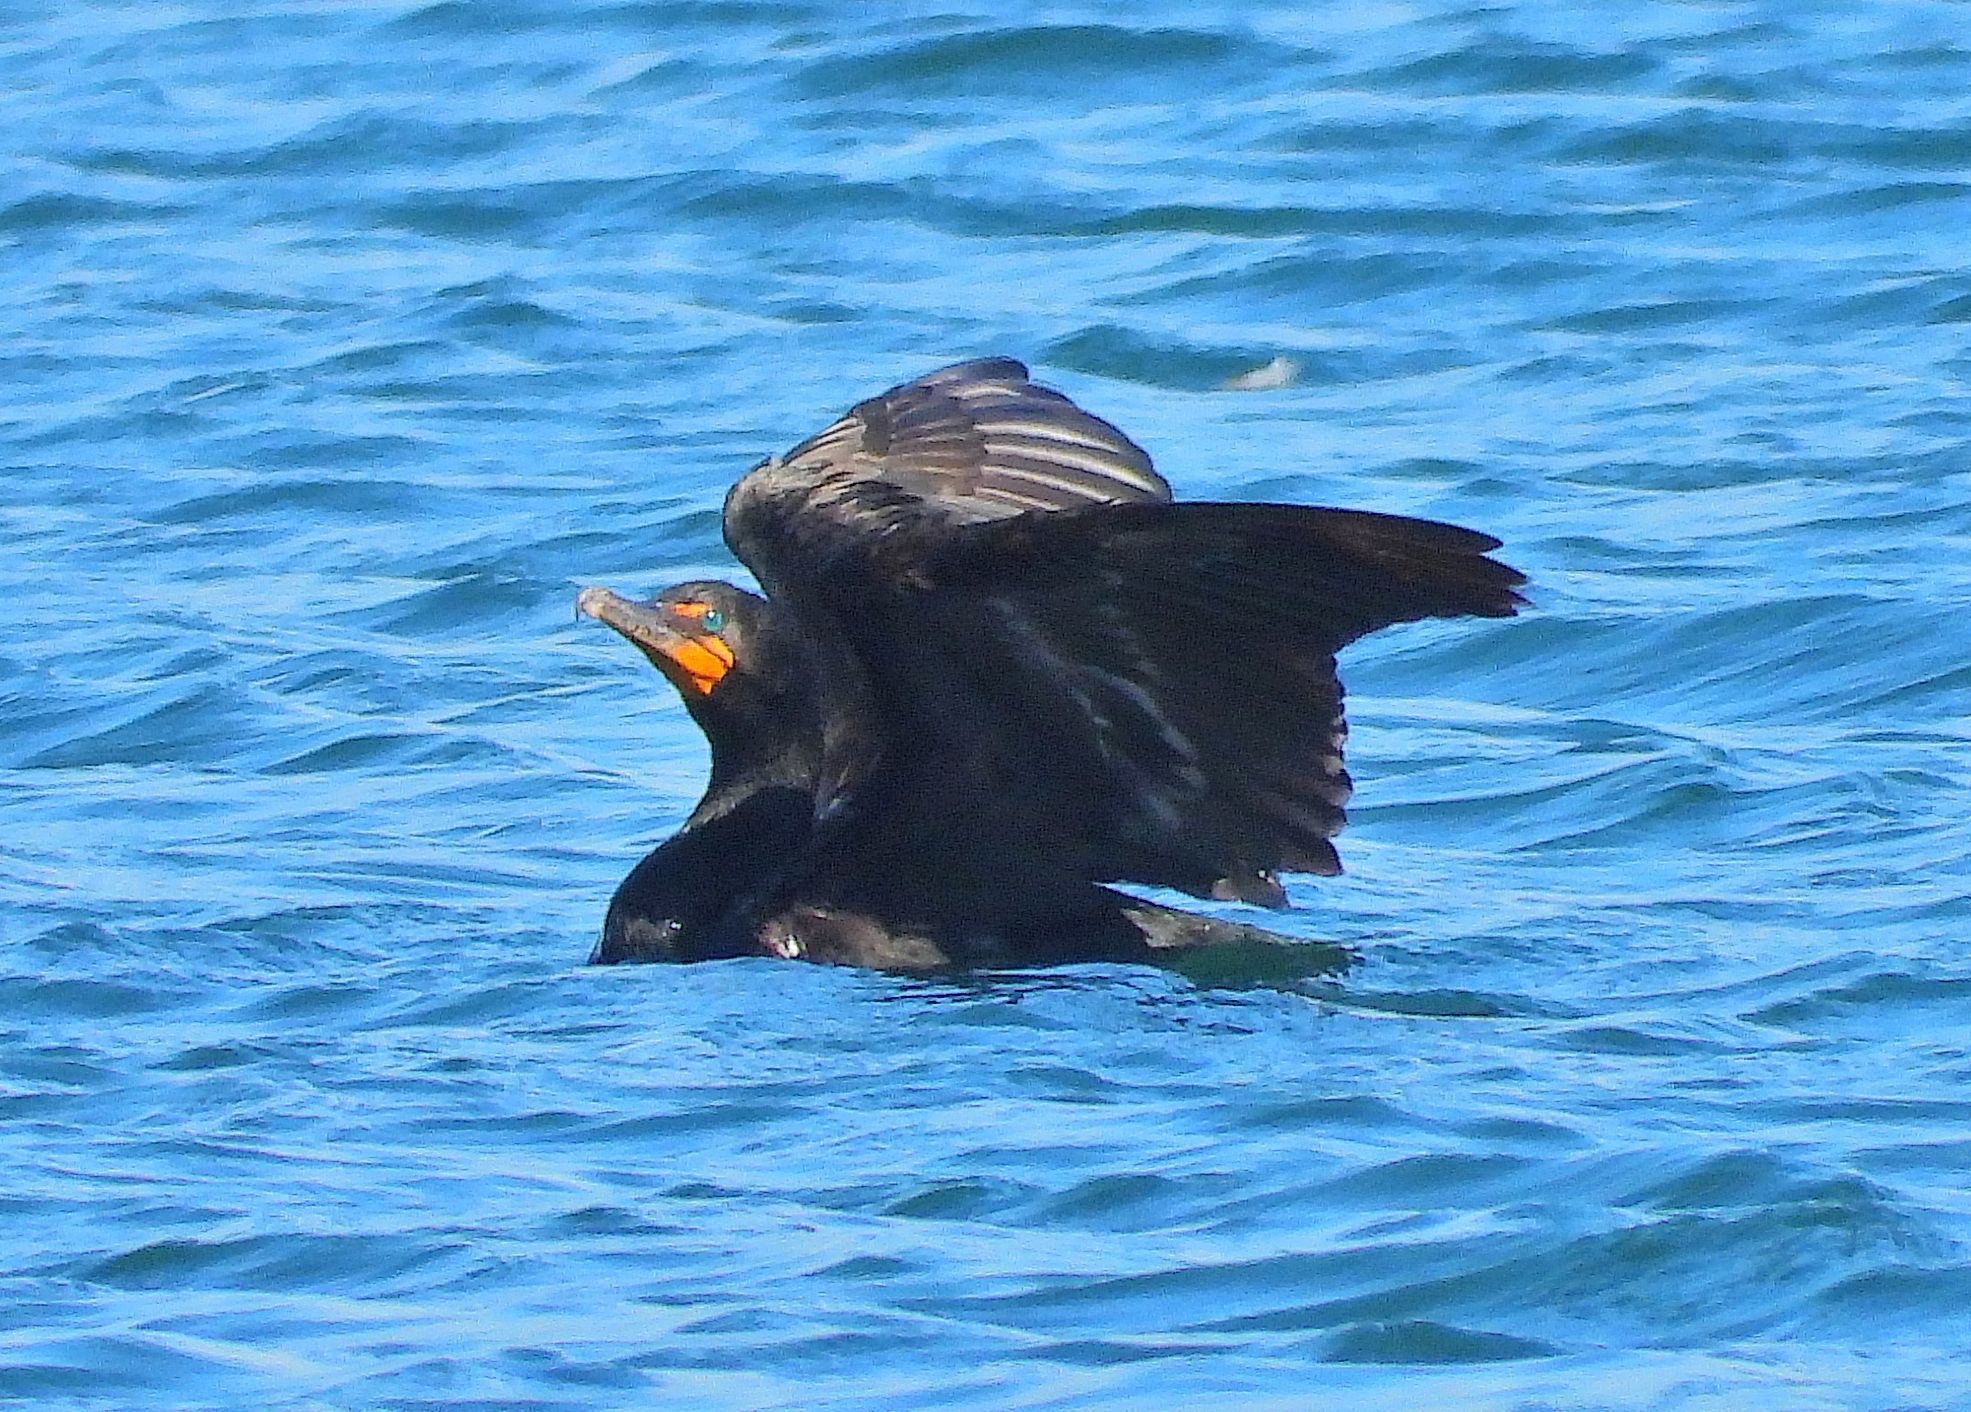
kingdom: Animalia
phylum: Chordata
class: Aves
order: Suliformes
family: Phalacrocoracidae
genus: Phalacrocorax
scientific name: Phalacrocorax auritus
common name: Double-crested cormorant
